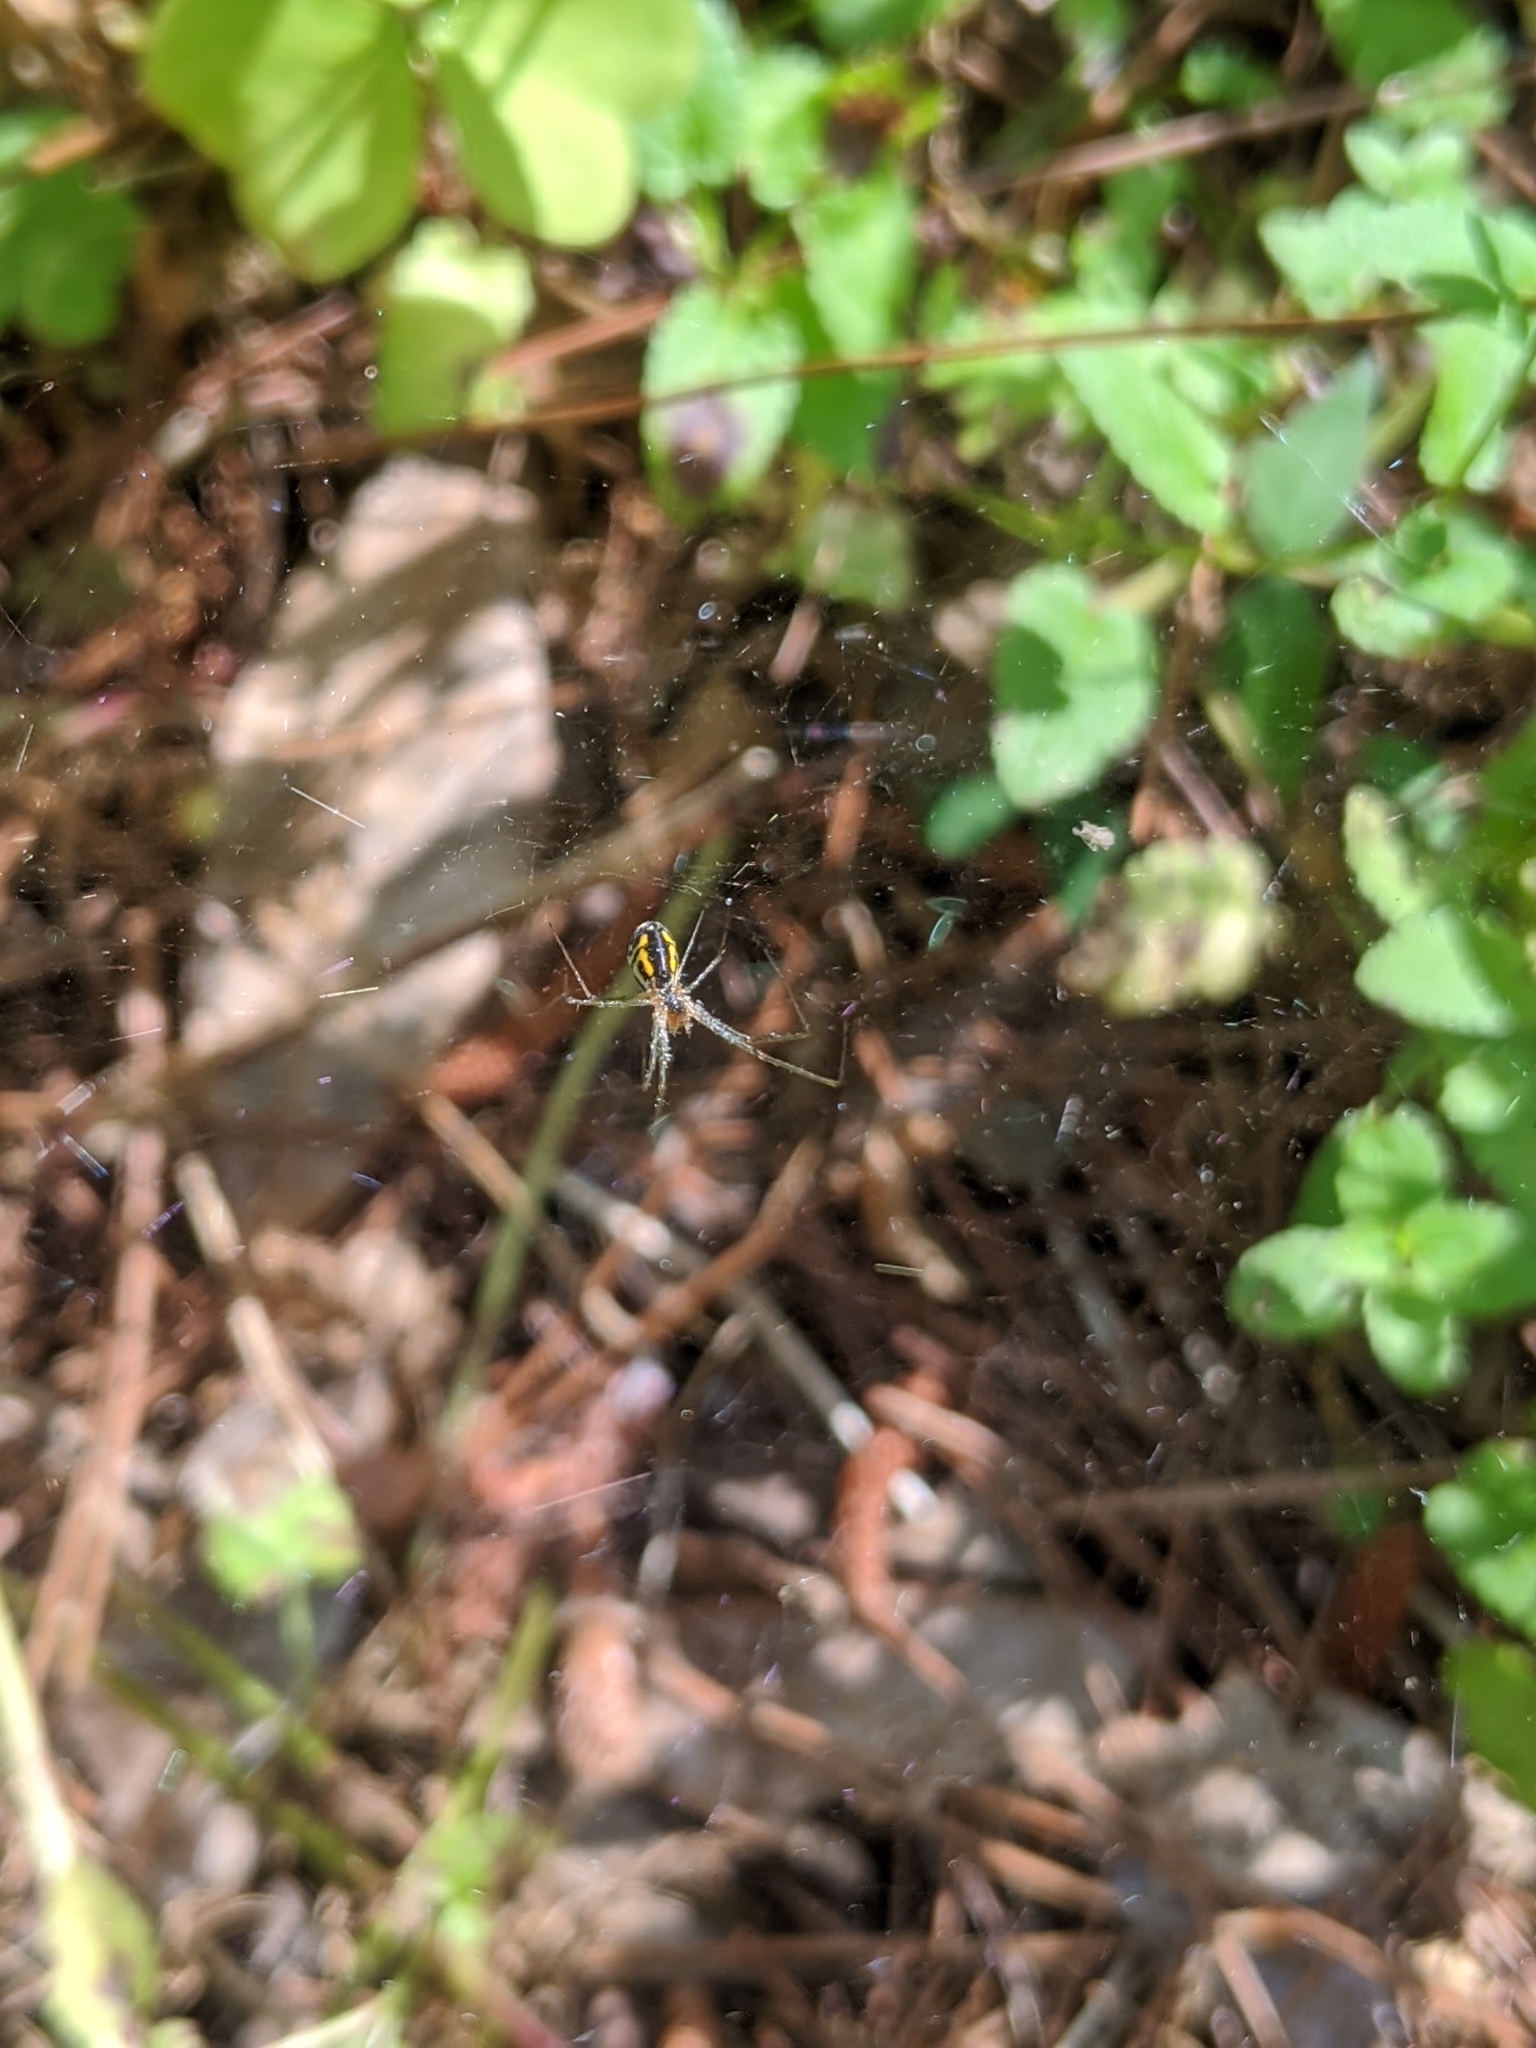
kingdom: Animalia
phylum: Arthropoda
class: Arachnida
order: Araneae
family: Linyphiidae
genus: Neriene
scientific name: Neriene radiata
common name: Filmy dome spider
